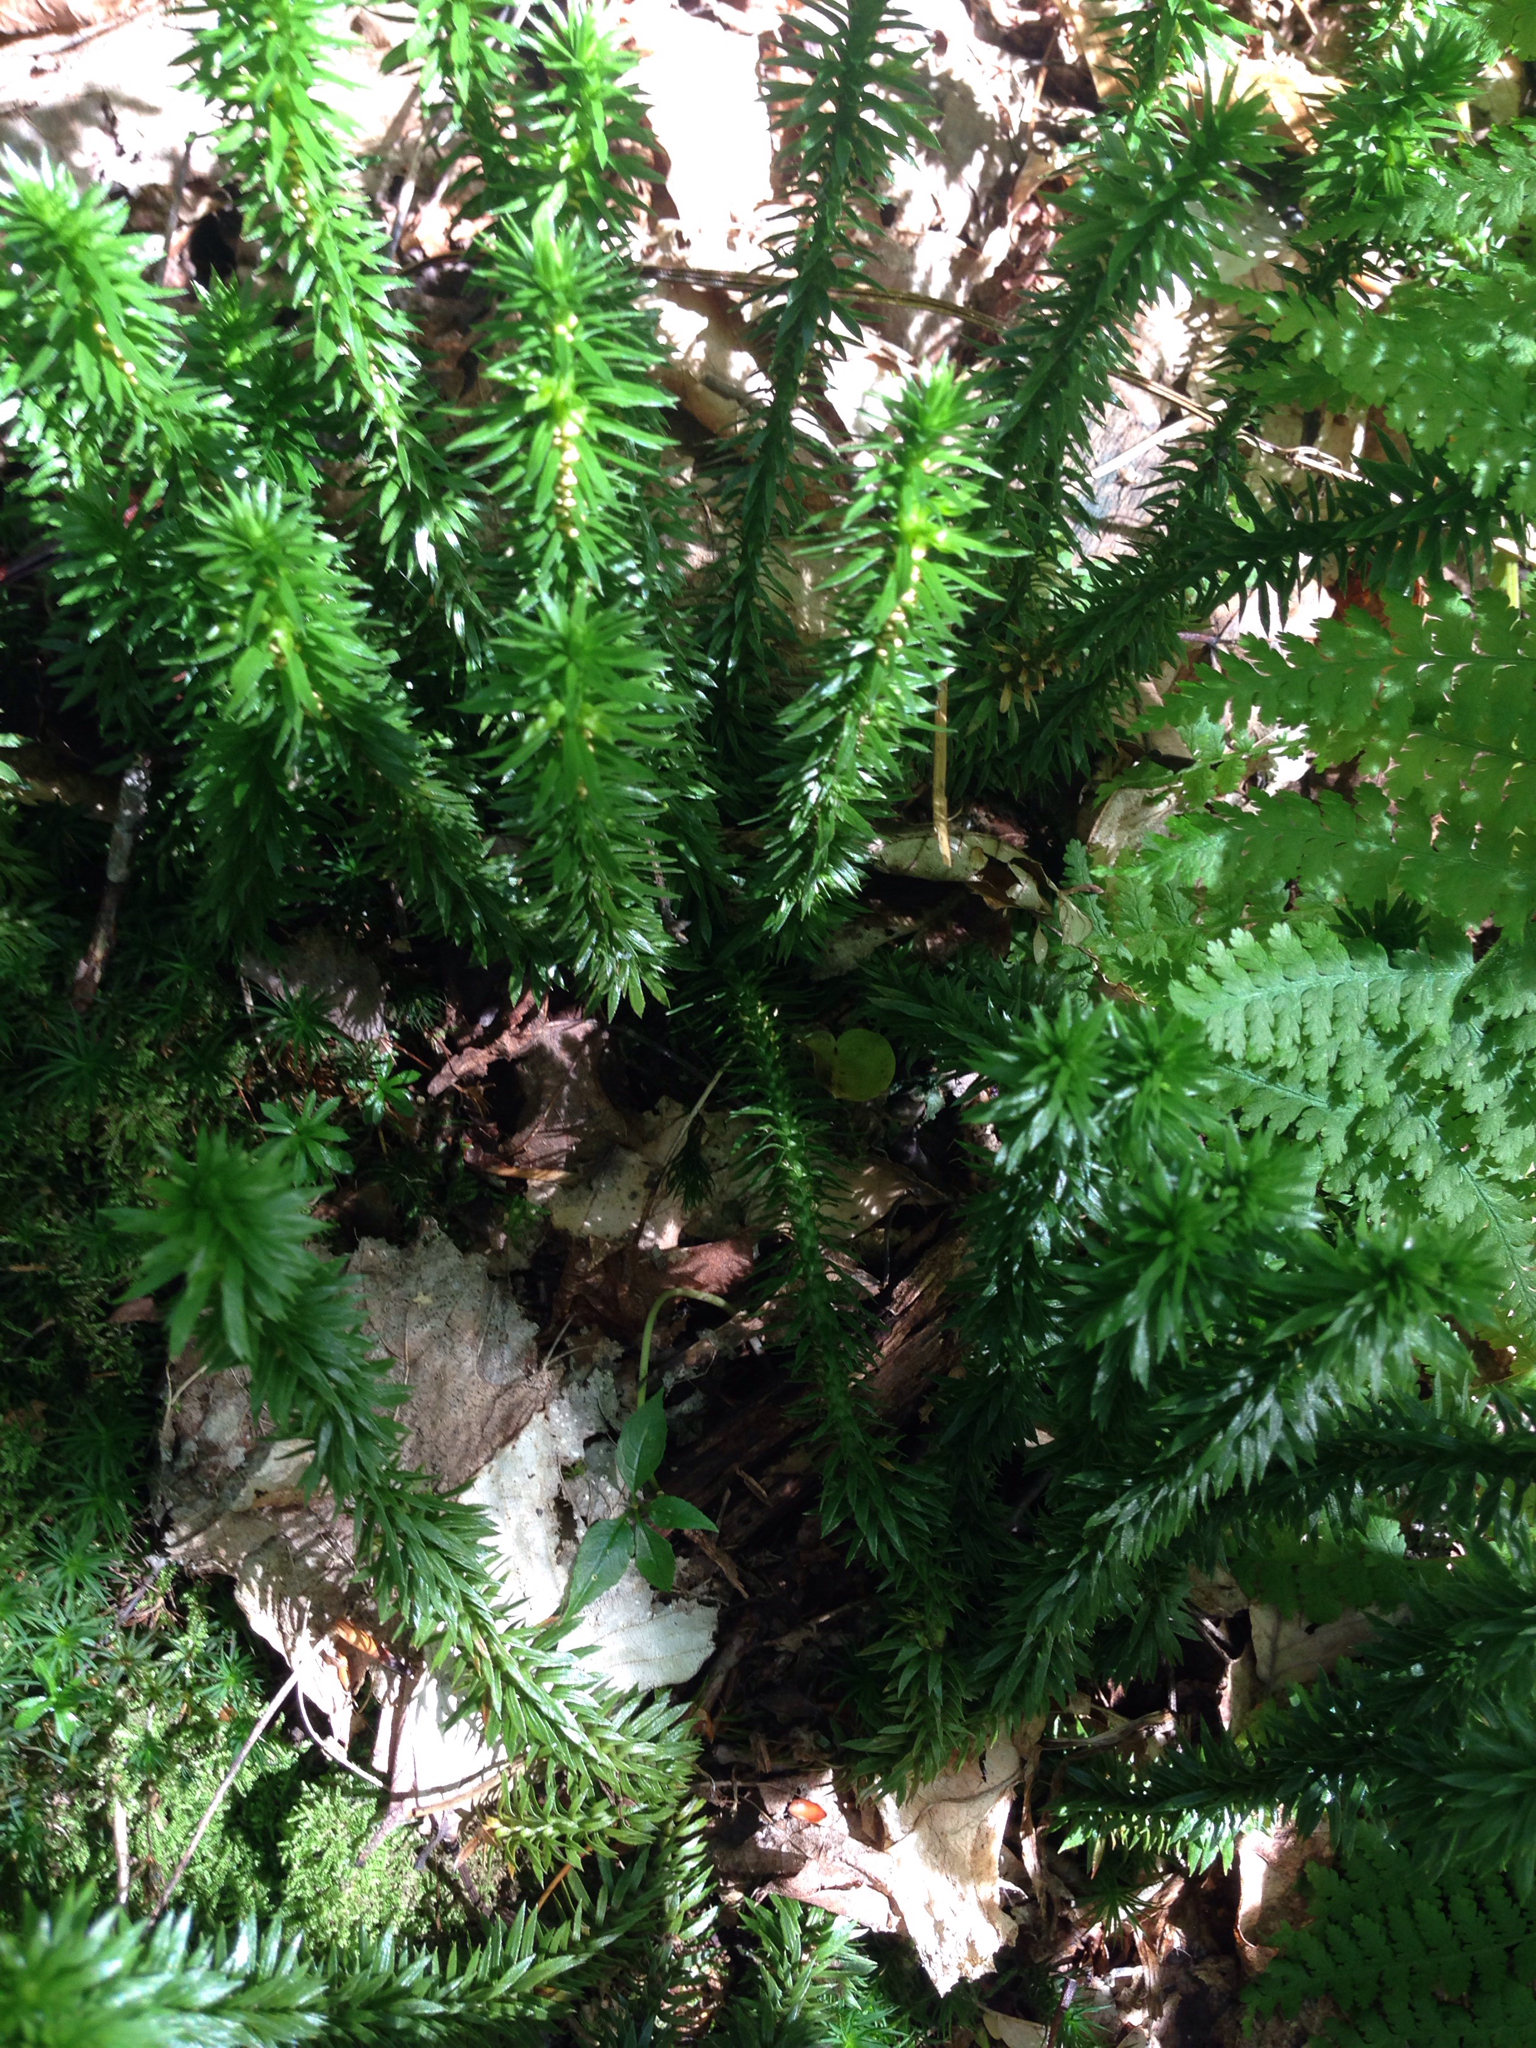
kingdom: Plantae
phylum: Tracheophyta
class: Lycopodiopsida
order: Lycopodiales
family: Lycopodiaceae
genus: Huperzia
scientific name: Huperzia lucidula
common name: Shining clubmoss
